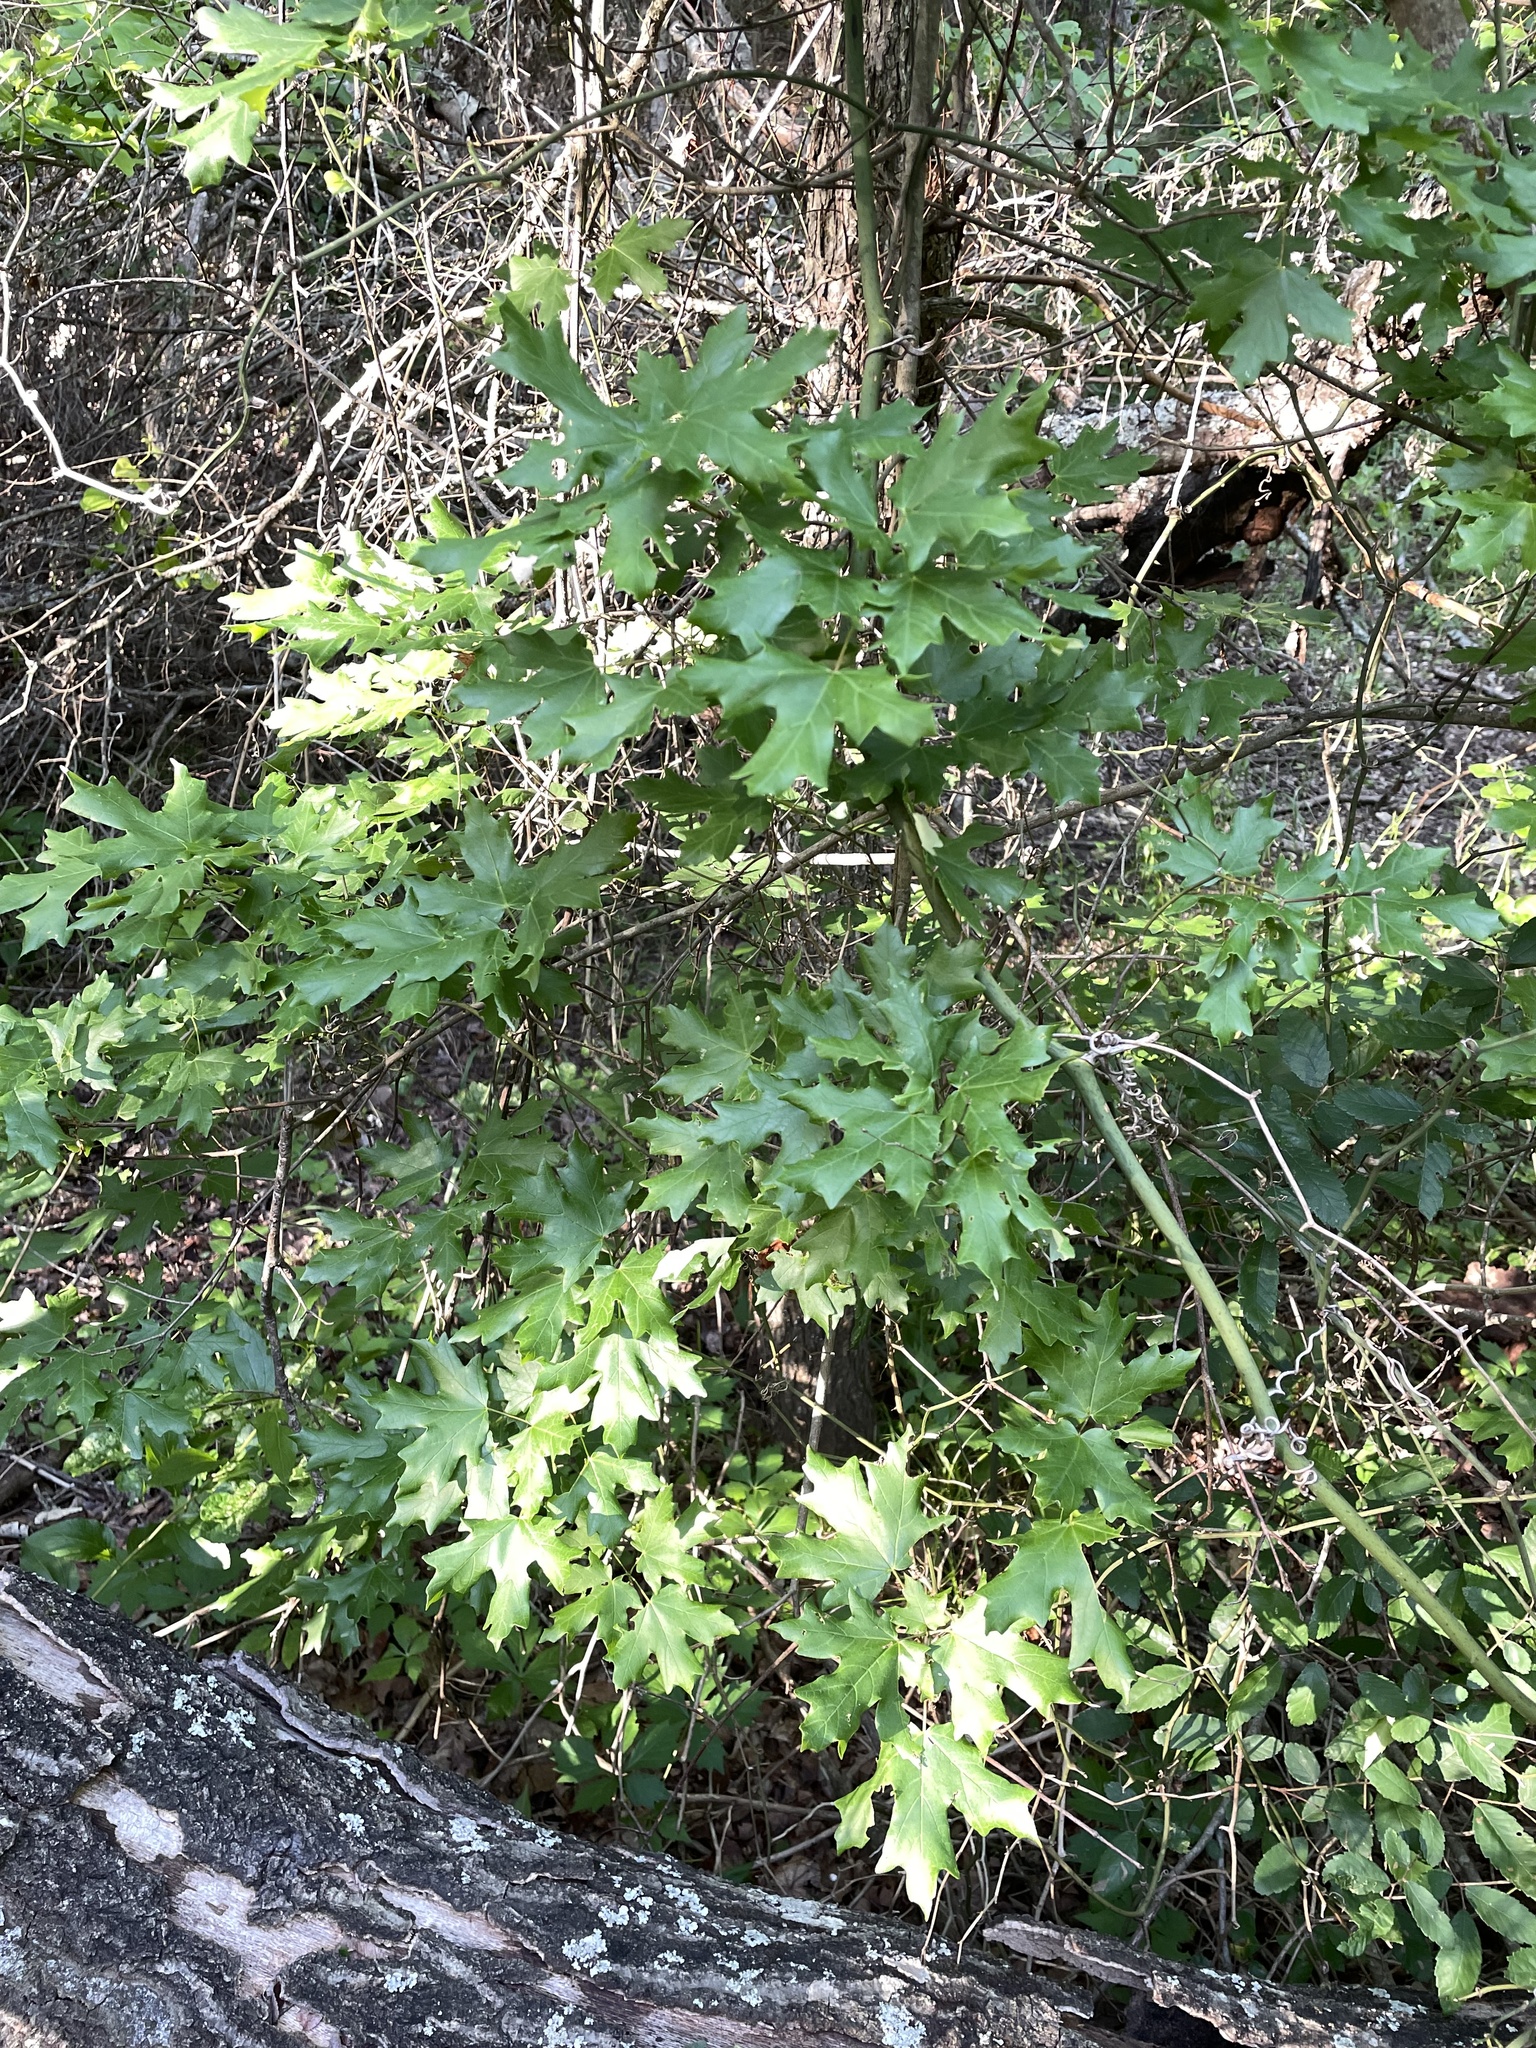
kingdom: Plantae
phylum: Tracheophyta
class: Magnoliopsida
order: Sapindales
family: Sapindaceae
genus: Acer
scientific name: Acer grandidentatum
